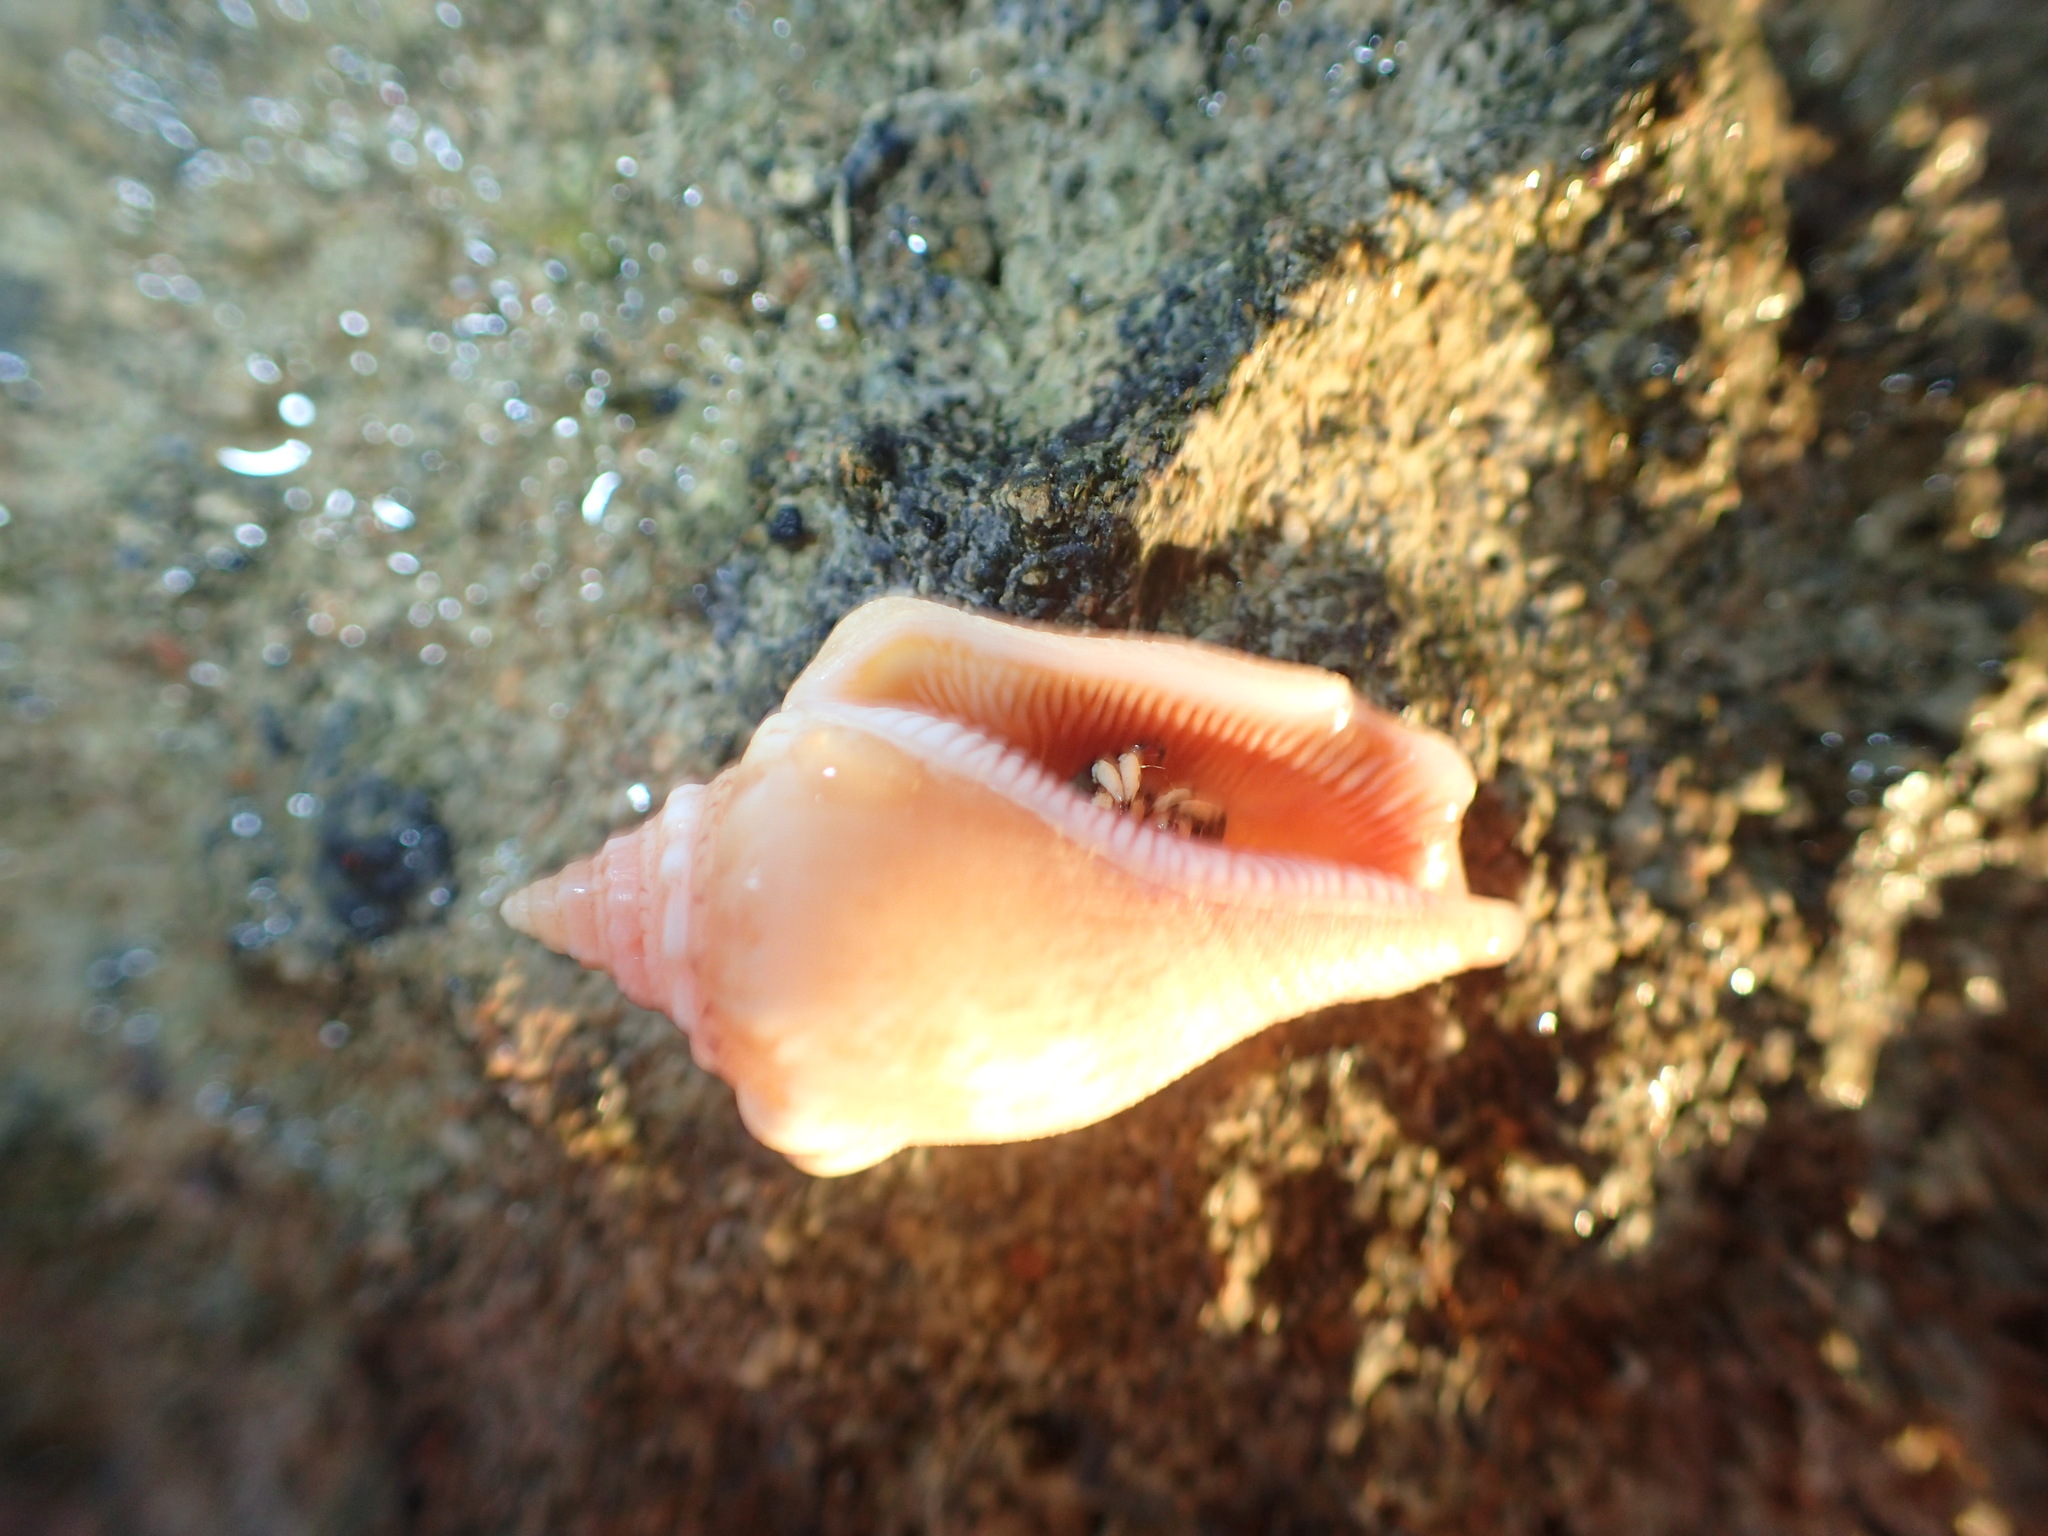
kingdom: Animalia
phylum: Mollusca
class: Gastropoda
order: Littorinimorpha
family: Strombidae
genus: Canarium
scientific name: Canarium mutabile
